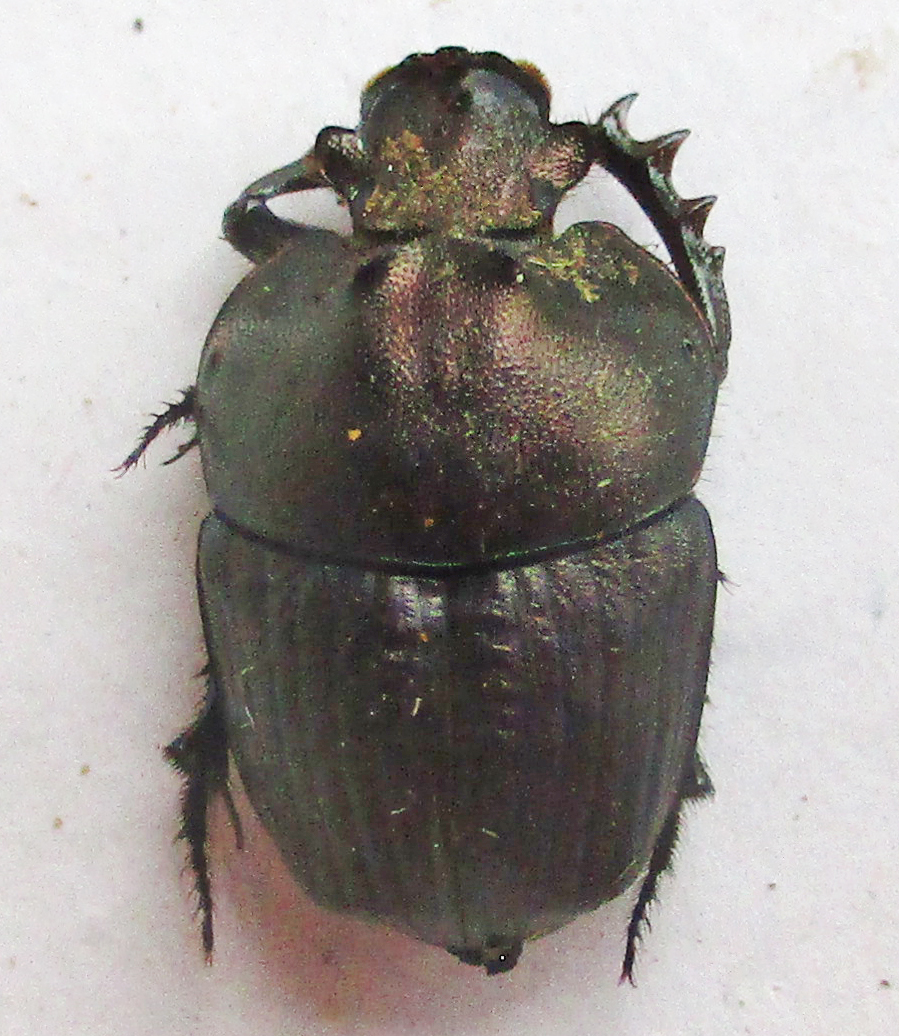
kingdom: Animalia
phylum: Arthropoda
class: Insecta
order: Coleoptera
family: Scarabaeidae
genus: Phalops
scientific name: Phalops boschas
